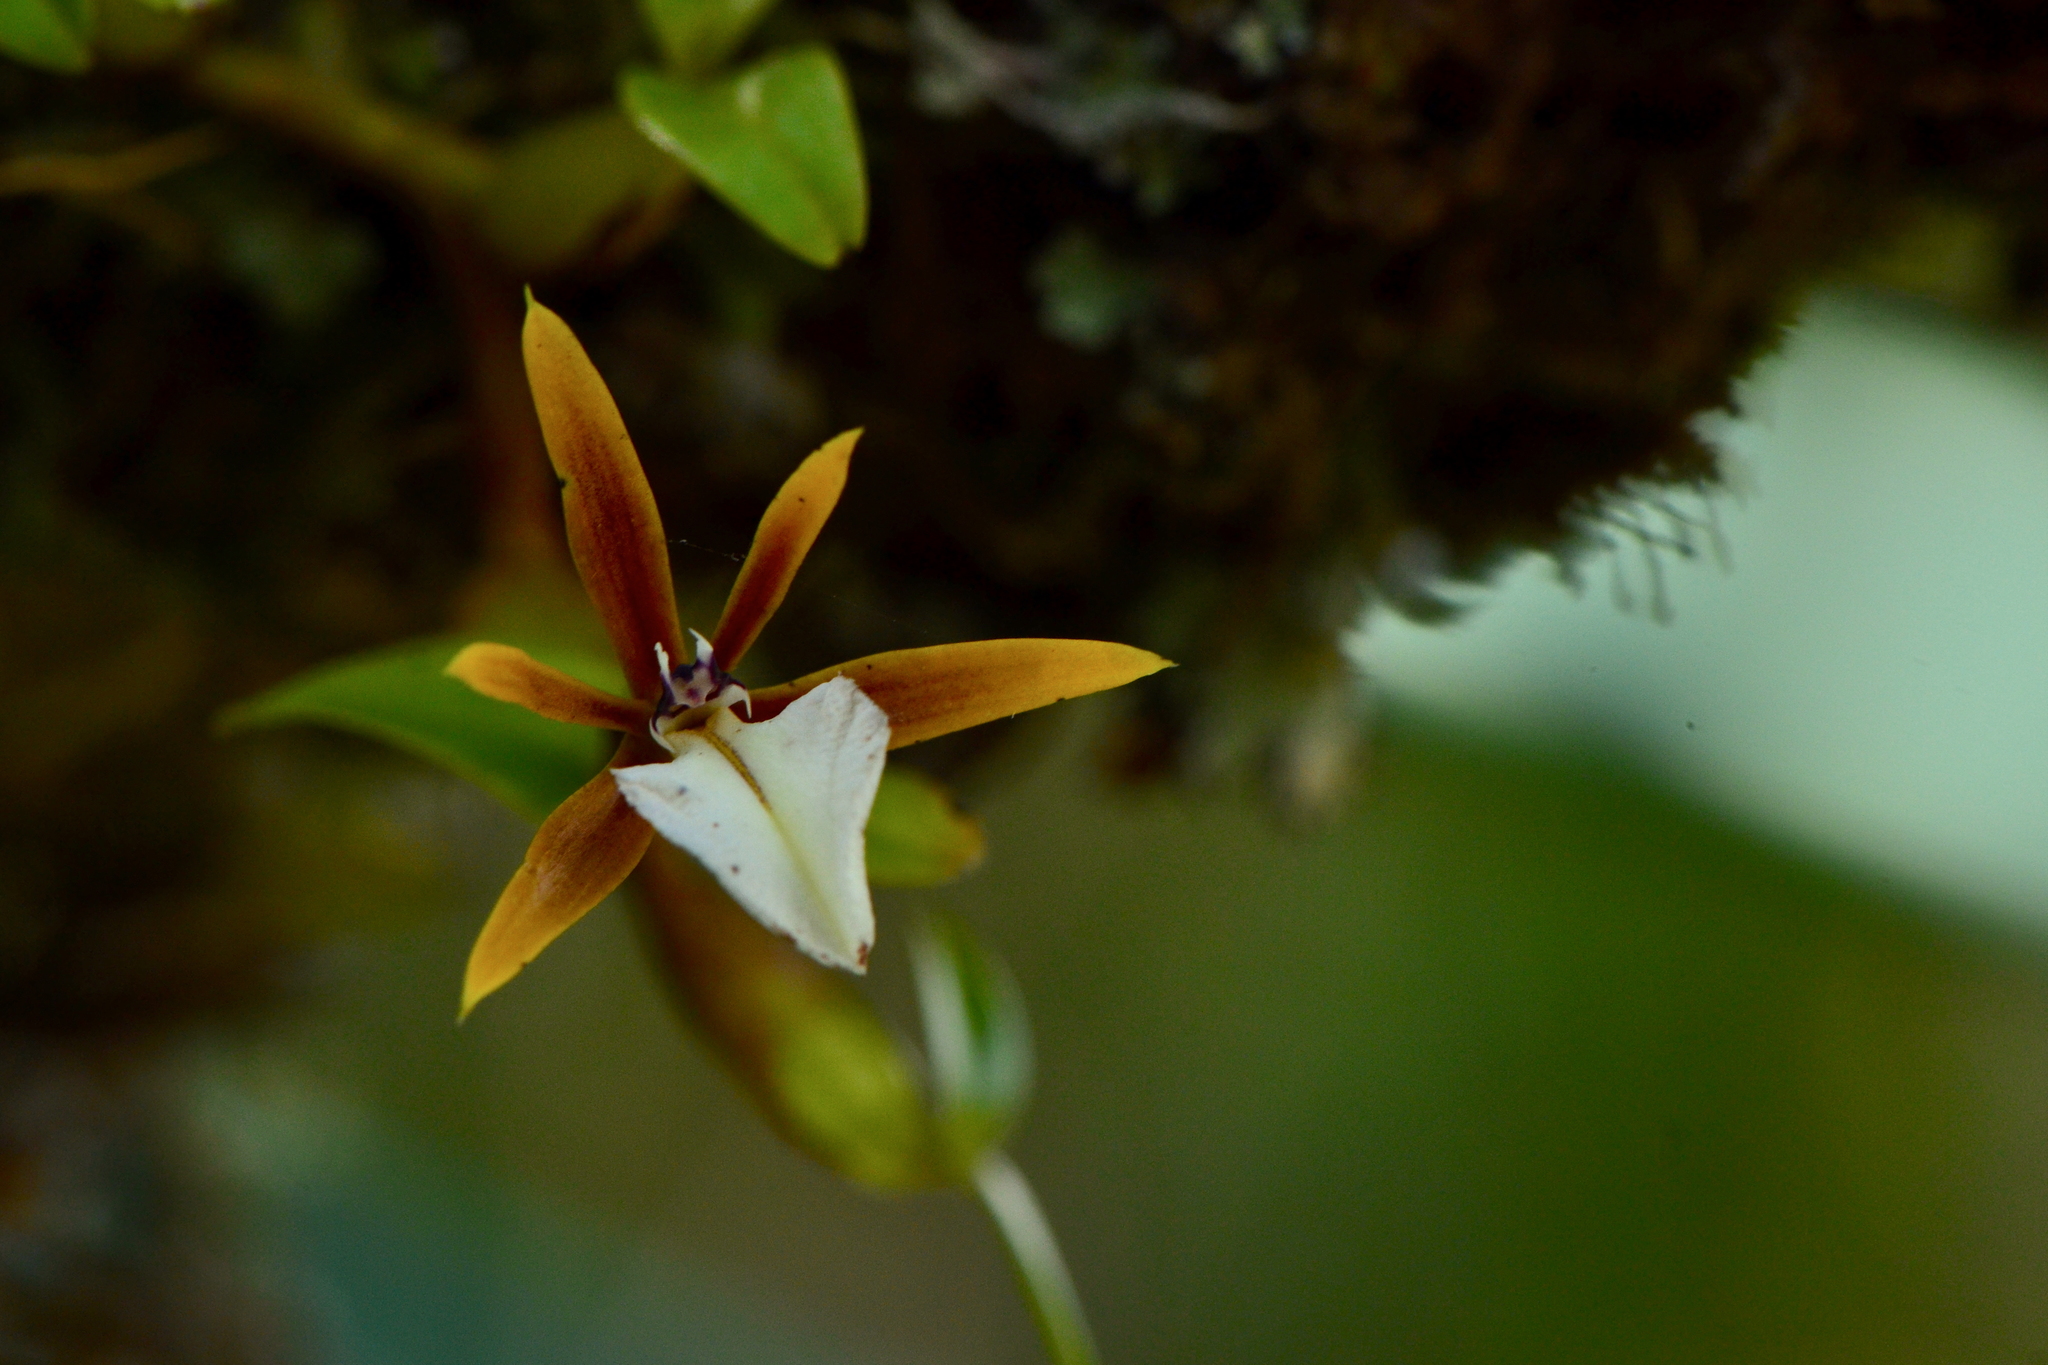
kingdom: Plantae
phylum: Tracheophyta
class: Liliopsida
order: Asparagales
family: Orchidaceae
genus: Dinema
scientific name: Dinema polybulbon
